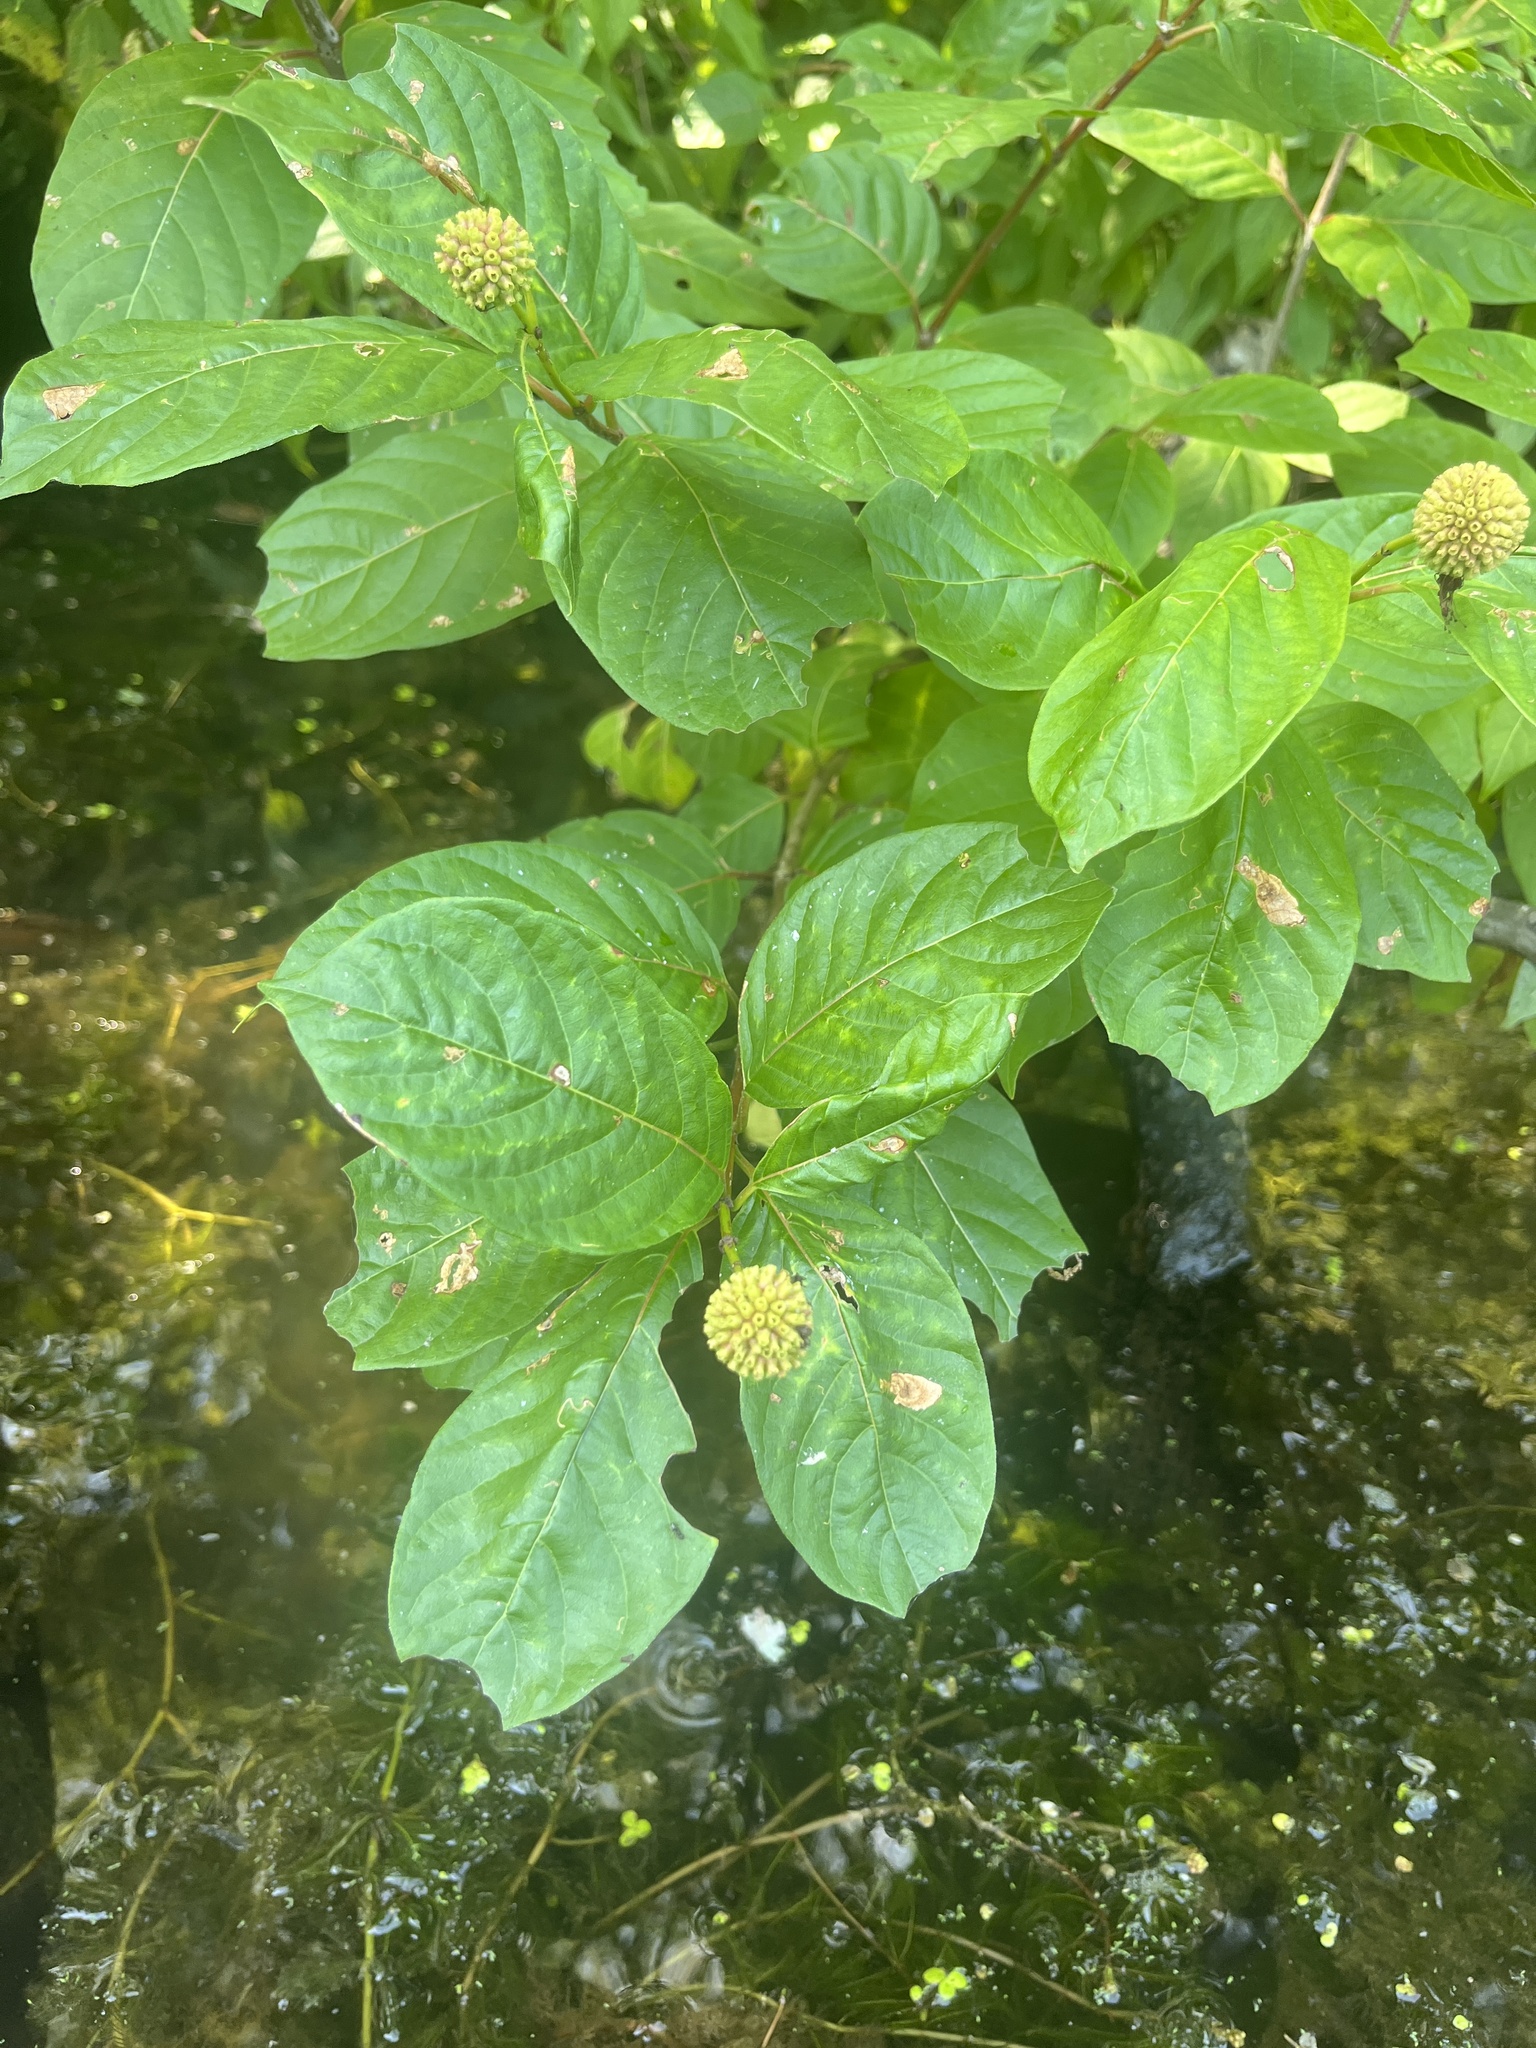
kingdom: Plantae
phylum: Tracheophyta
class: Magnoliopsida
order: Gentianales
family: Rubiaceae
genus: Cephalanthus
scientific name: Cephalanthus occidentalis
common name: Button-willow
